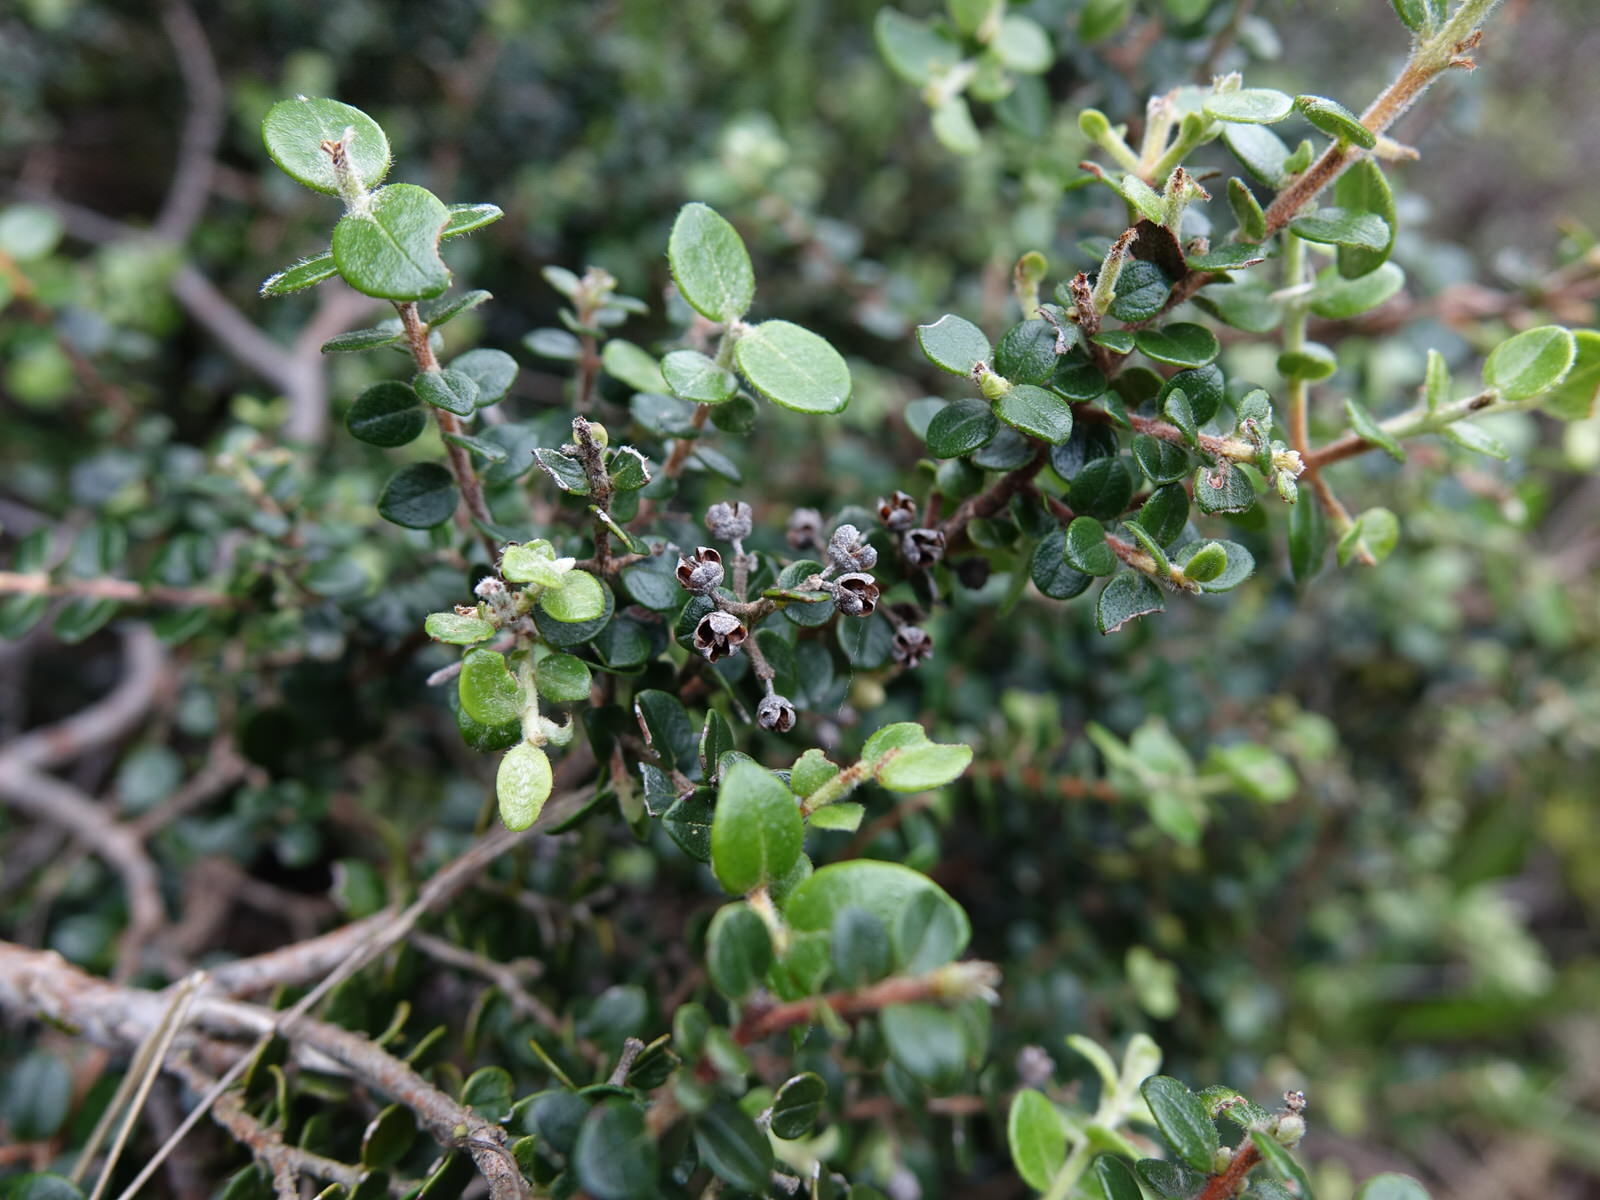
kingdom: Plantae
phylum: Tracheophyta
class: Magnoliopsida
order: Myrtales
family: Myrtaceae
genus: Metrosideros
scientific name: Metrosideros perforata
